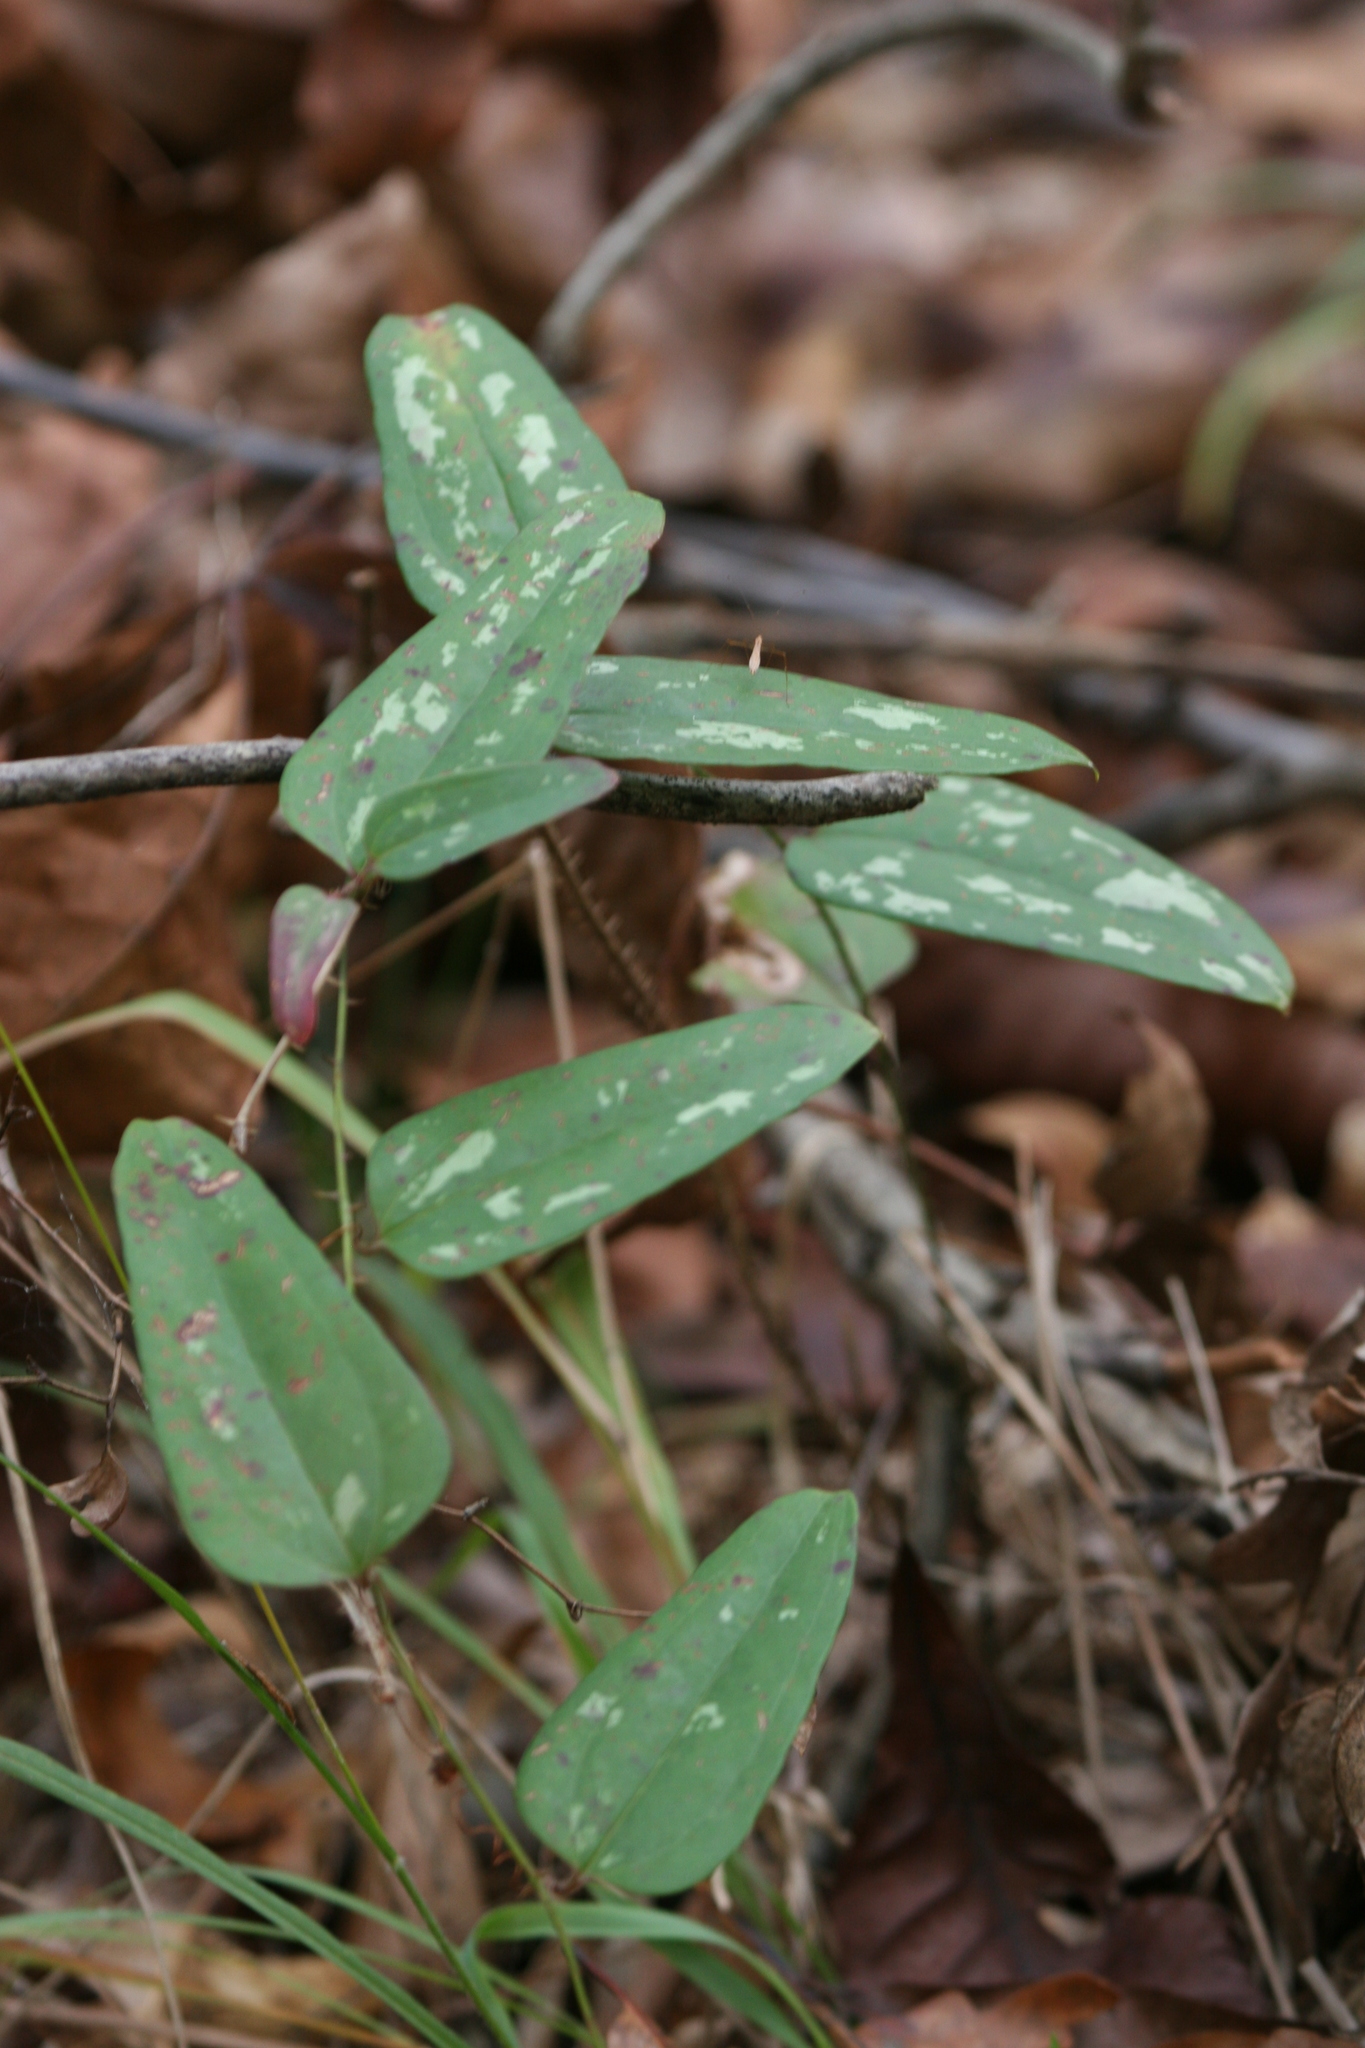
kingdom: Plantae
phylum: Tracheophyta
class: Liliopsida
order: Liliales
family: Smilacaceae
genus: Smilax
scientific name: Smilax glauca
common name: Cat greenbrier
